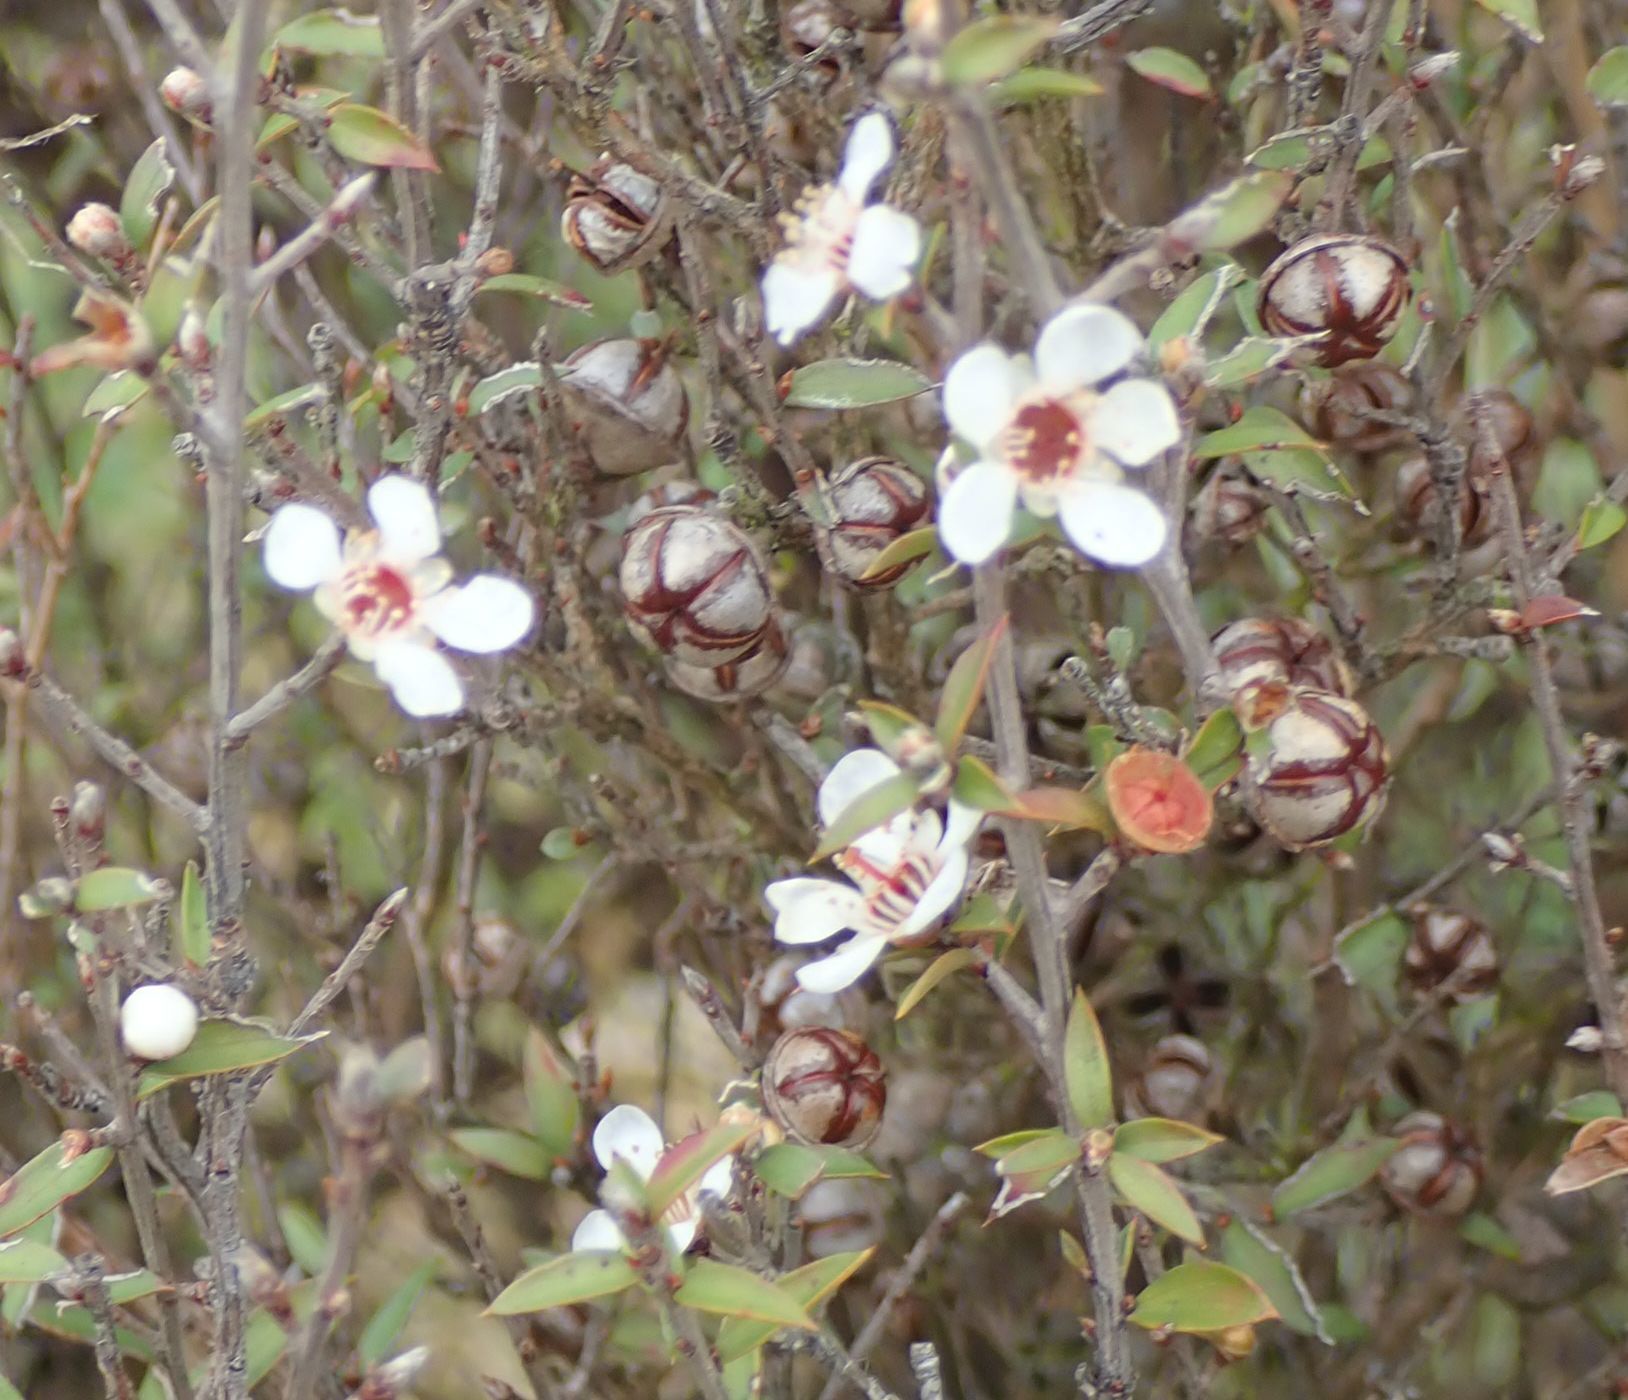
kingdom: Plantae
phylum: Tracheophyta
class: Magnoliopsida
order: Myrtales
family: Myrtaceae
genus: Leptospermum
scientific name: Leptospermum scoparium
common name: Broom tea-tree
